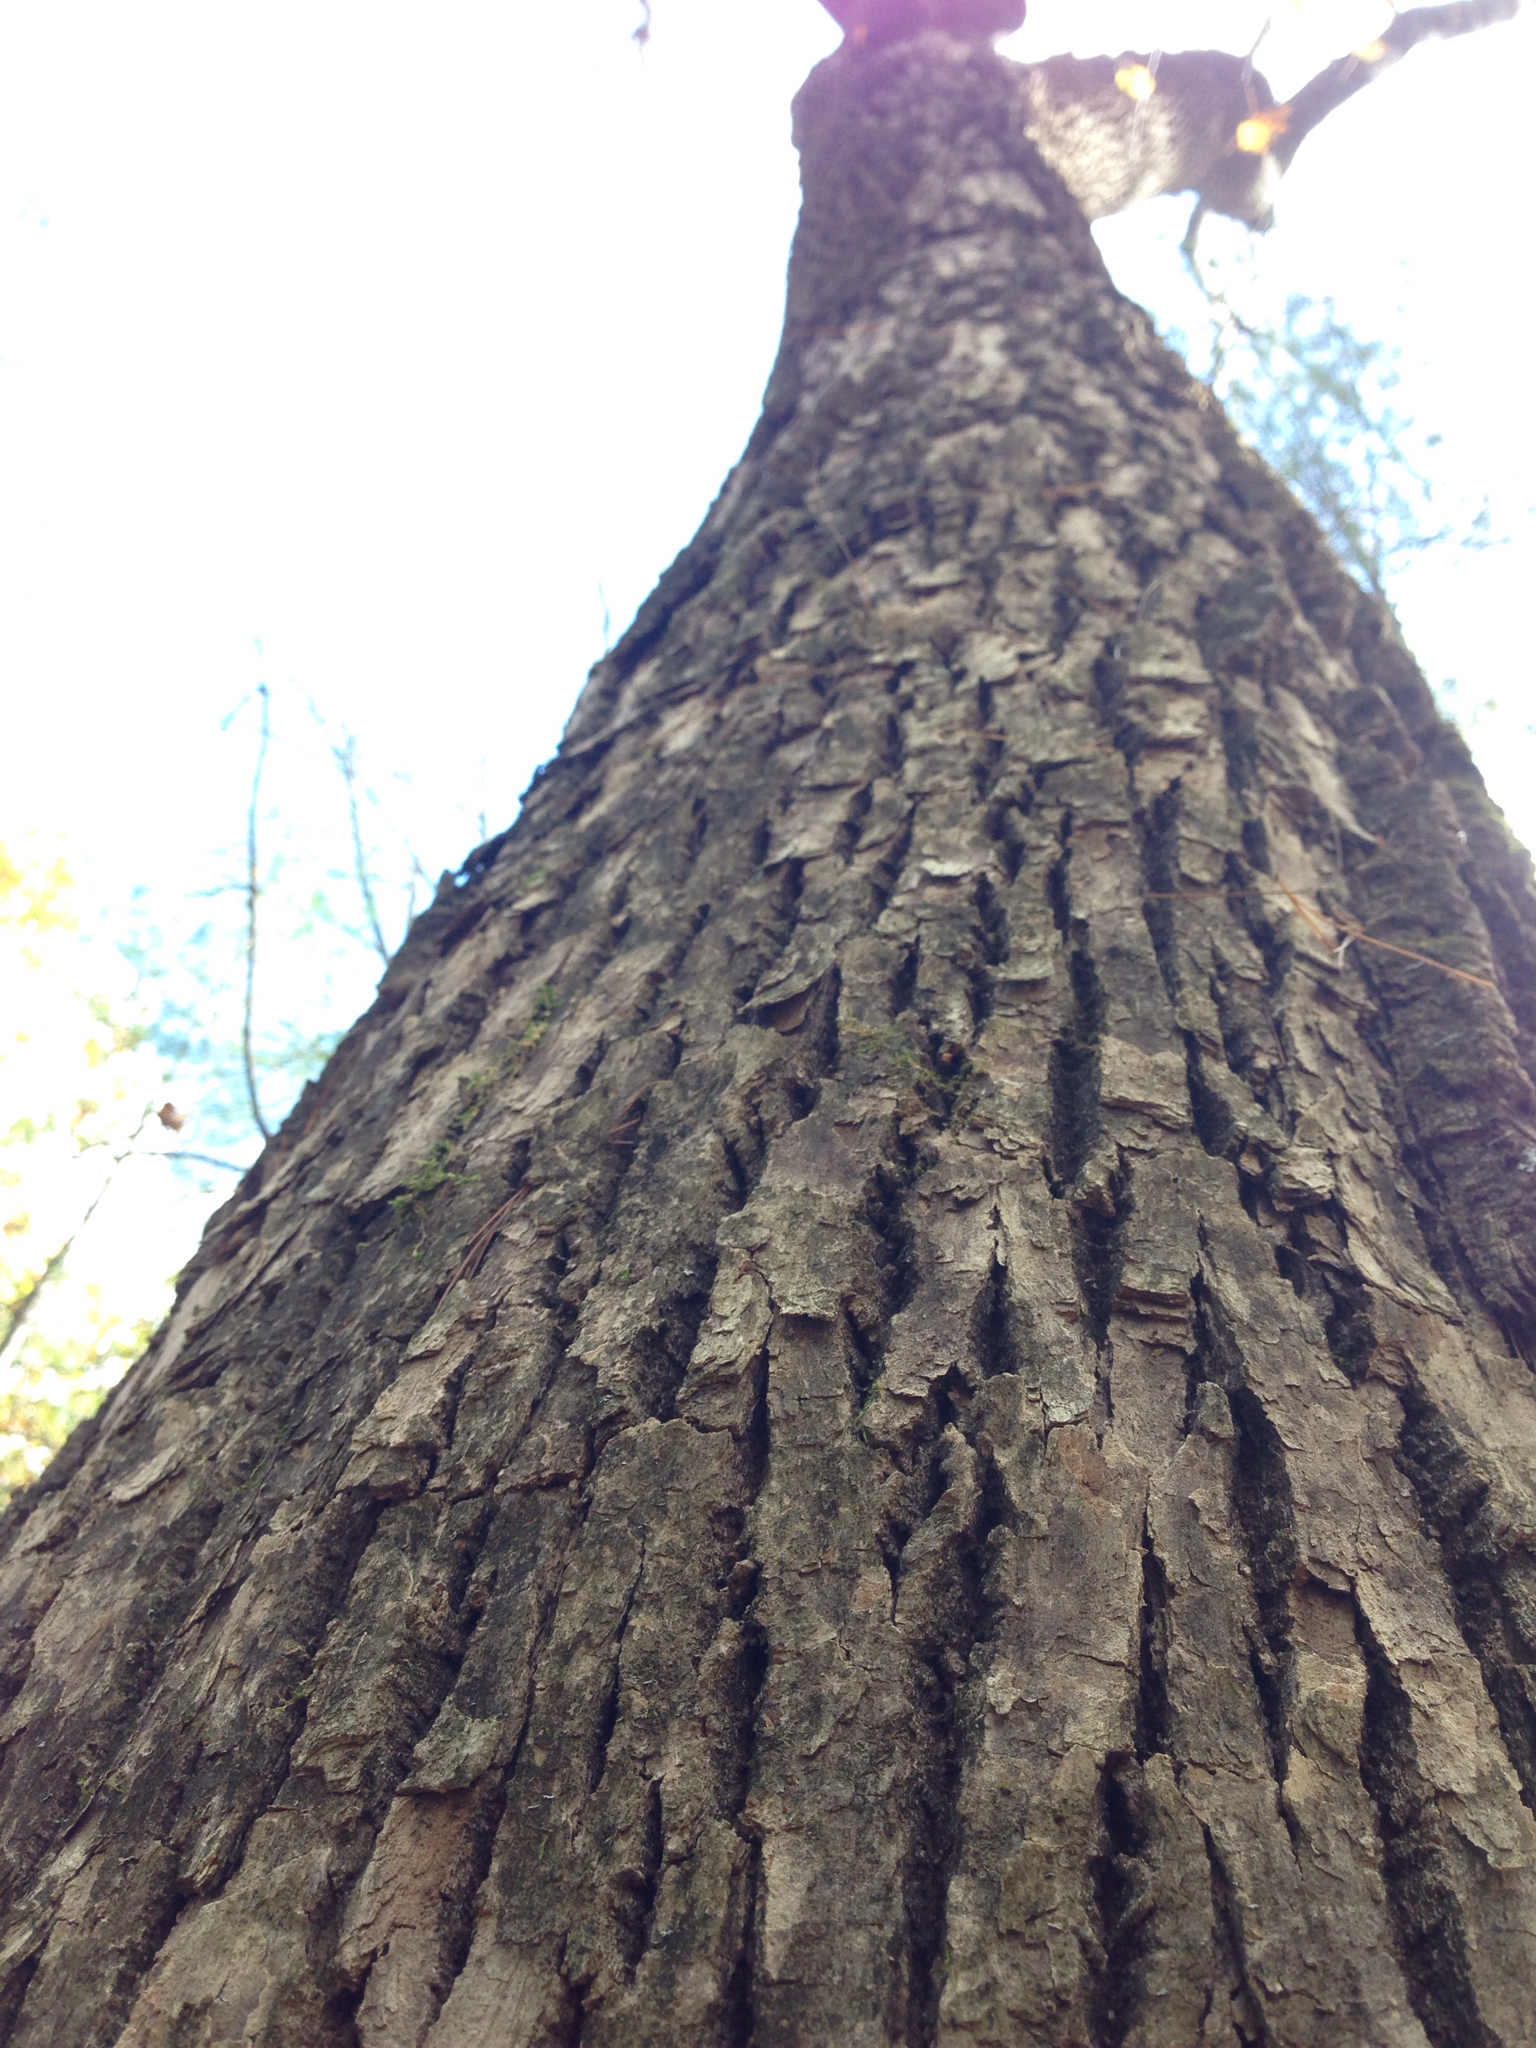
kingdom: Plantae
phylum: Tracheophyta
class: Magnoliopsida
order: Lamiales
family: Oleaceae
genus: Fraxinus
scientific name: Fraxinus americana
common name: White ash
